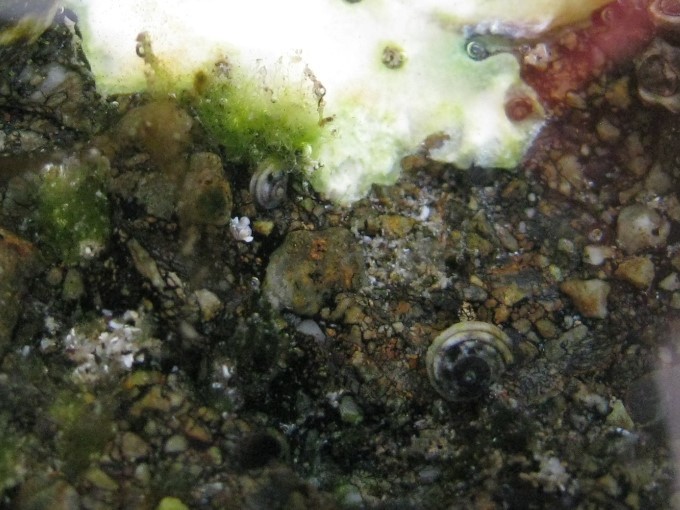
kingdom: Animalia
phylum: Mollusca
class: Gastropoda
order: Littorinimorpha
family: Littorinidae
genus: Risellopsis
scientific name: Risellopsis varia
